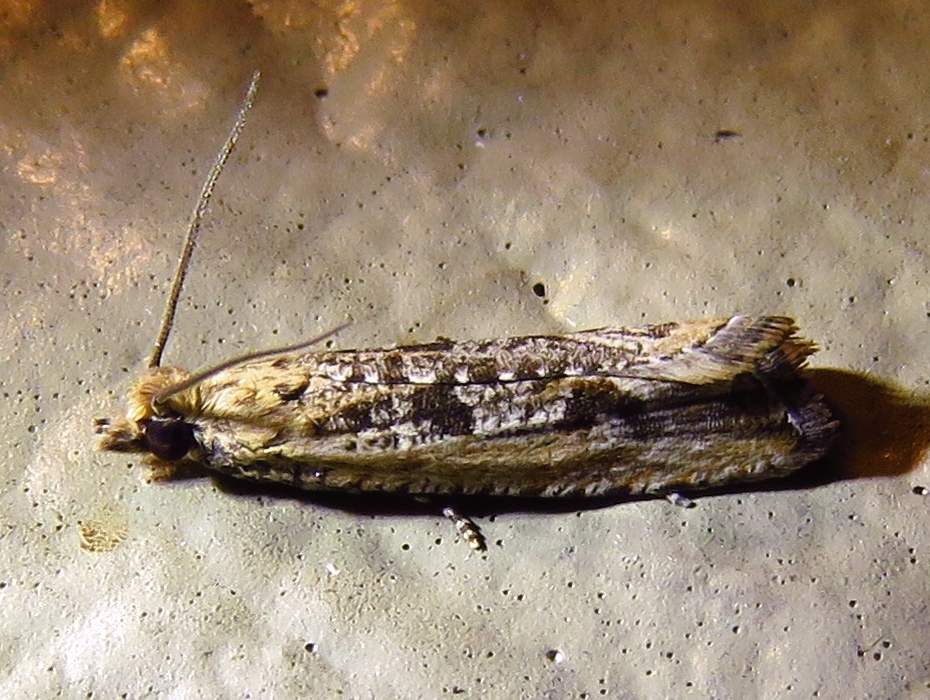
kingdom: Animalia
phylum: Arthropoda
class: Insecta
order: Lepidoptera
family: Tortricidae
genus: Bactra
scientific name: Bactra verutana
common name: Javelin moth
